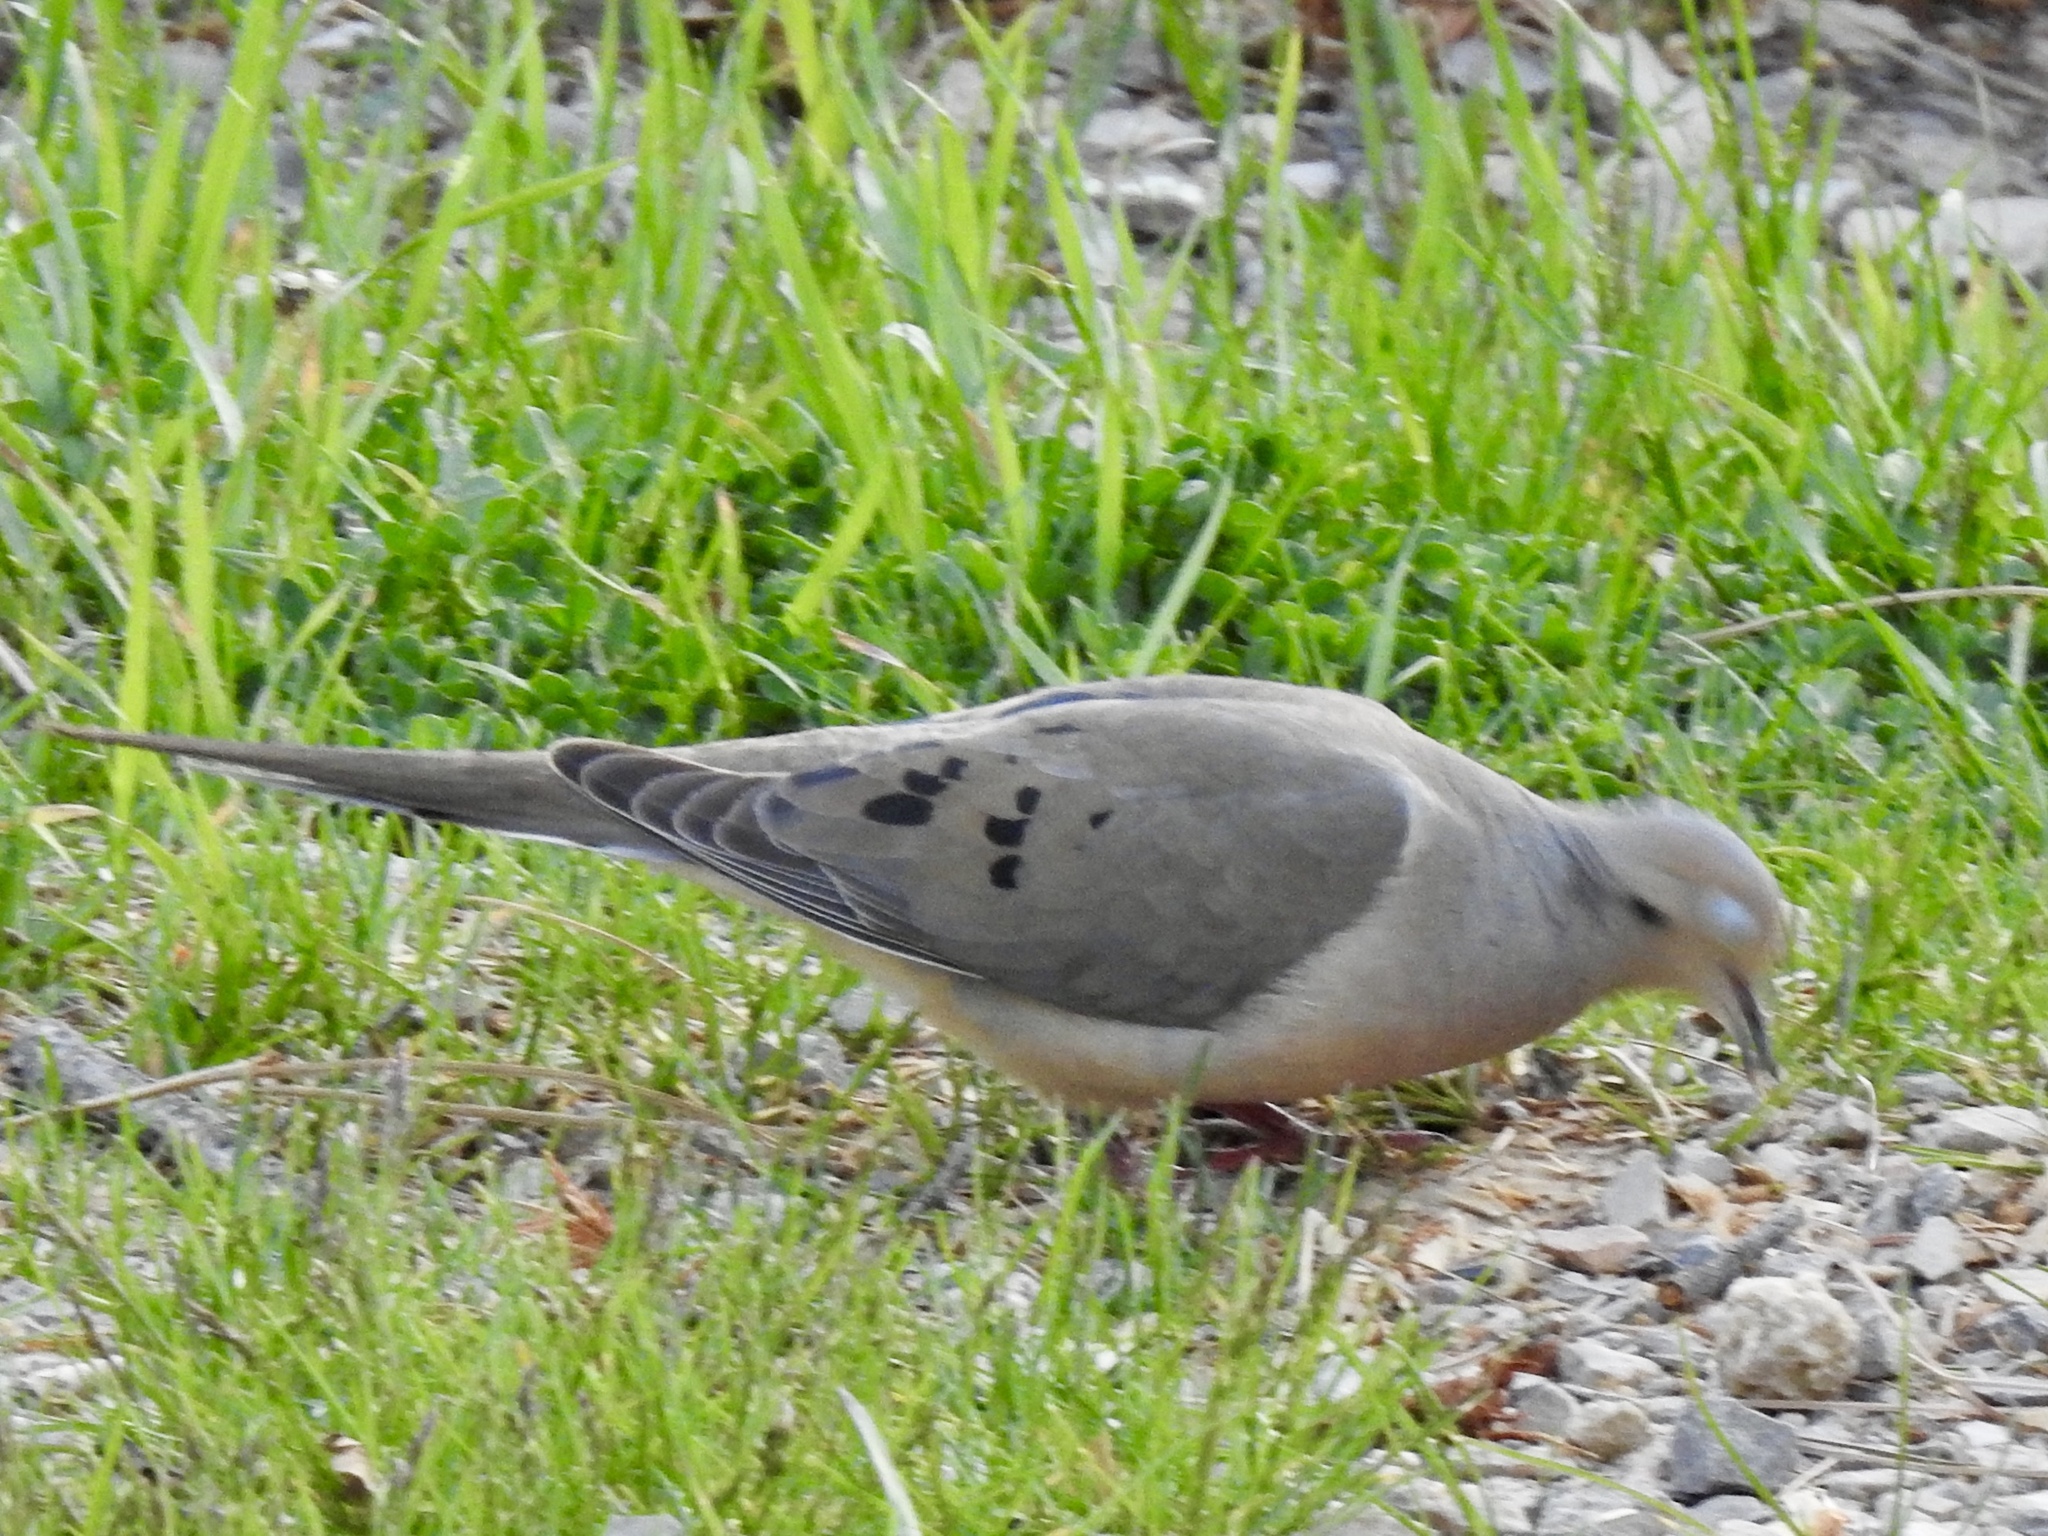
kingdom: Animalia
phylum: Chordata
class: Aves
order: Columbiformes
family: Columbidae
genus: Zenaida
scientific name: Zenaida macroura
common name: Mourning dove
